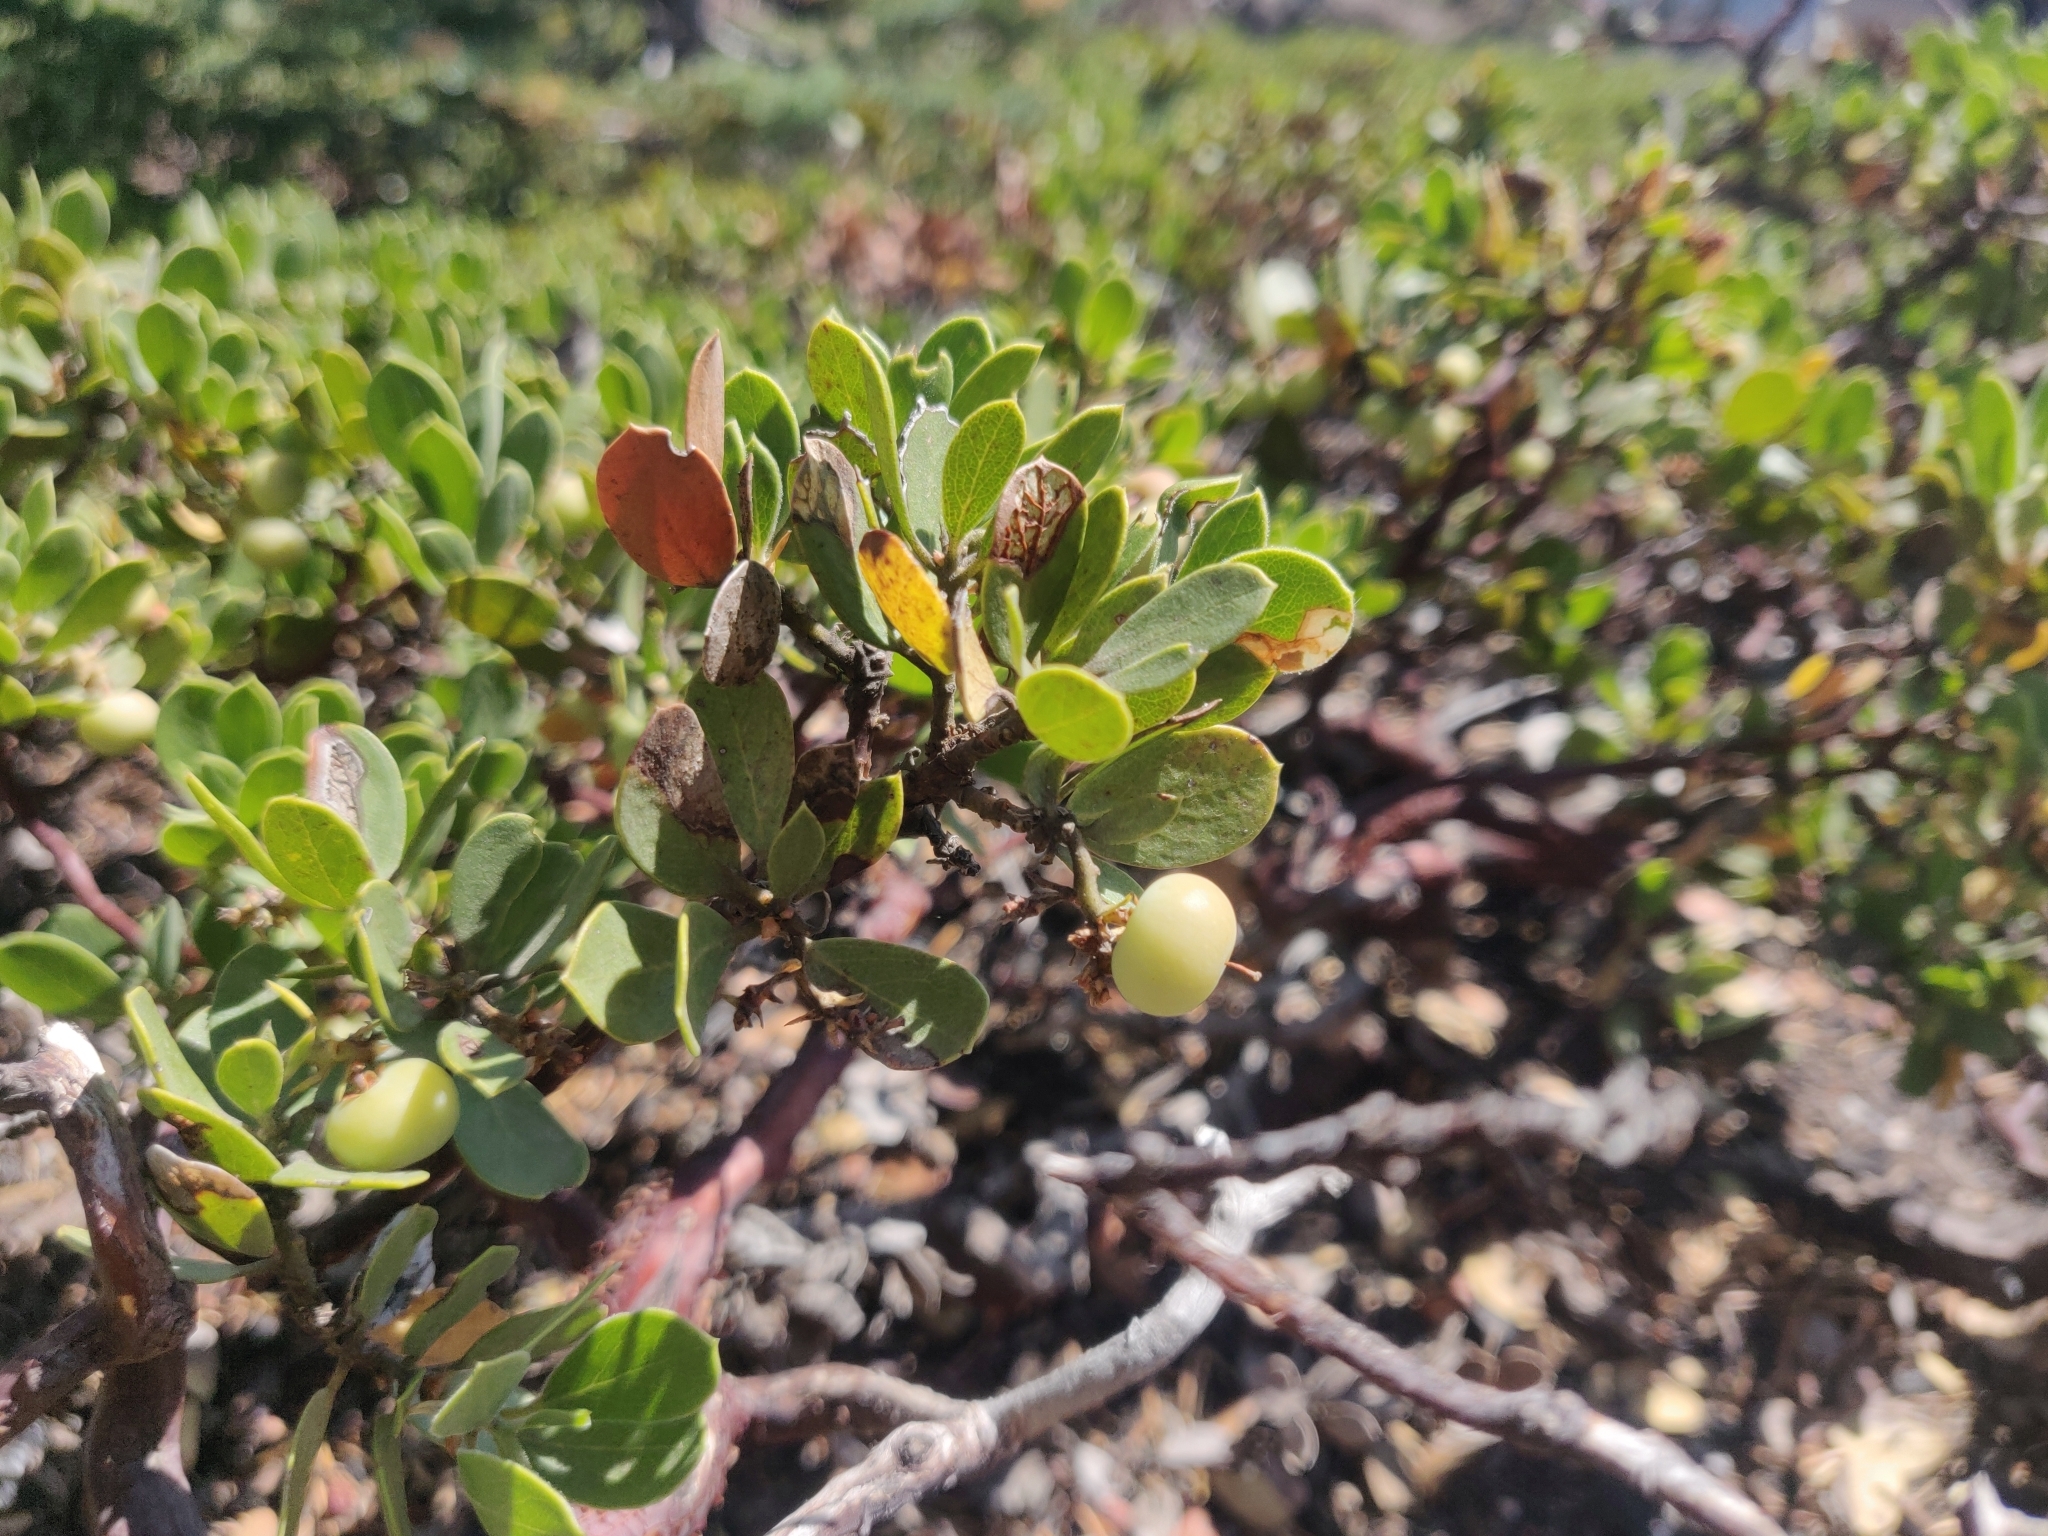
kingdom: Plantae
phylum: Tracheophyta
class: Magnoliopsida
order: Ericales
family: Ericaceae
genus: Arctostaphylos
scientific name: Arctostaphylos nevadensis
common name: Pinemat manzanita
